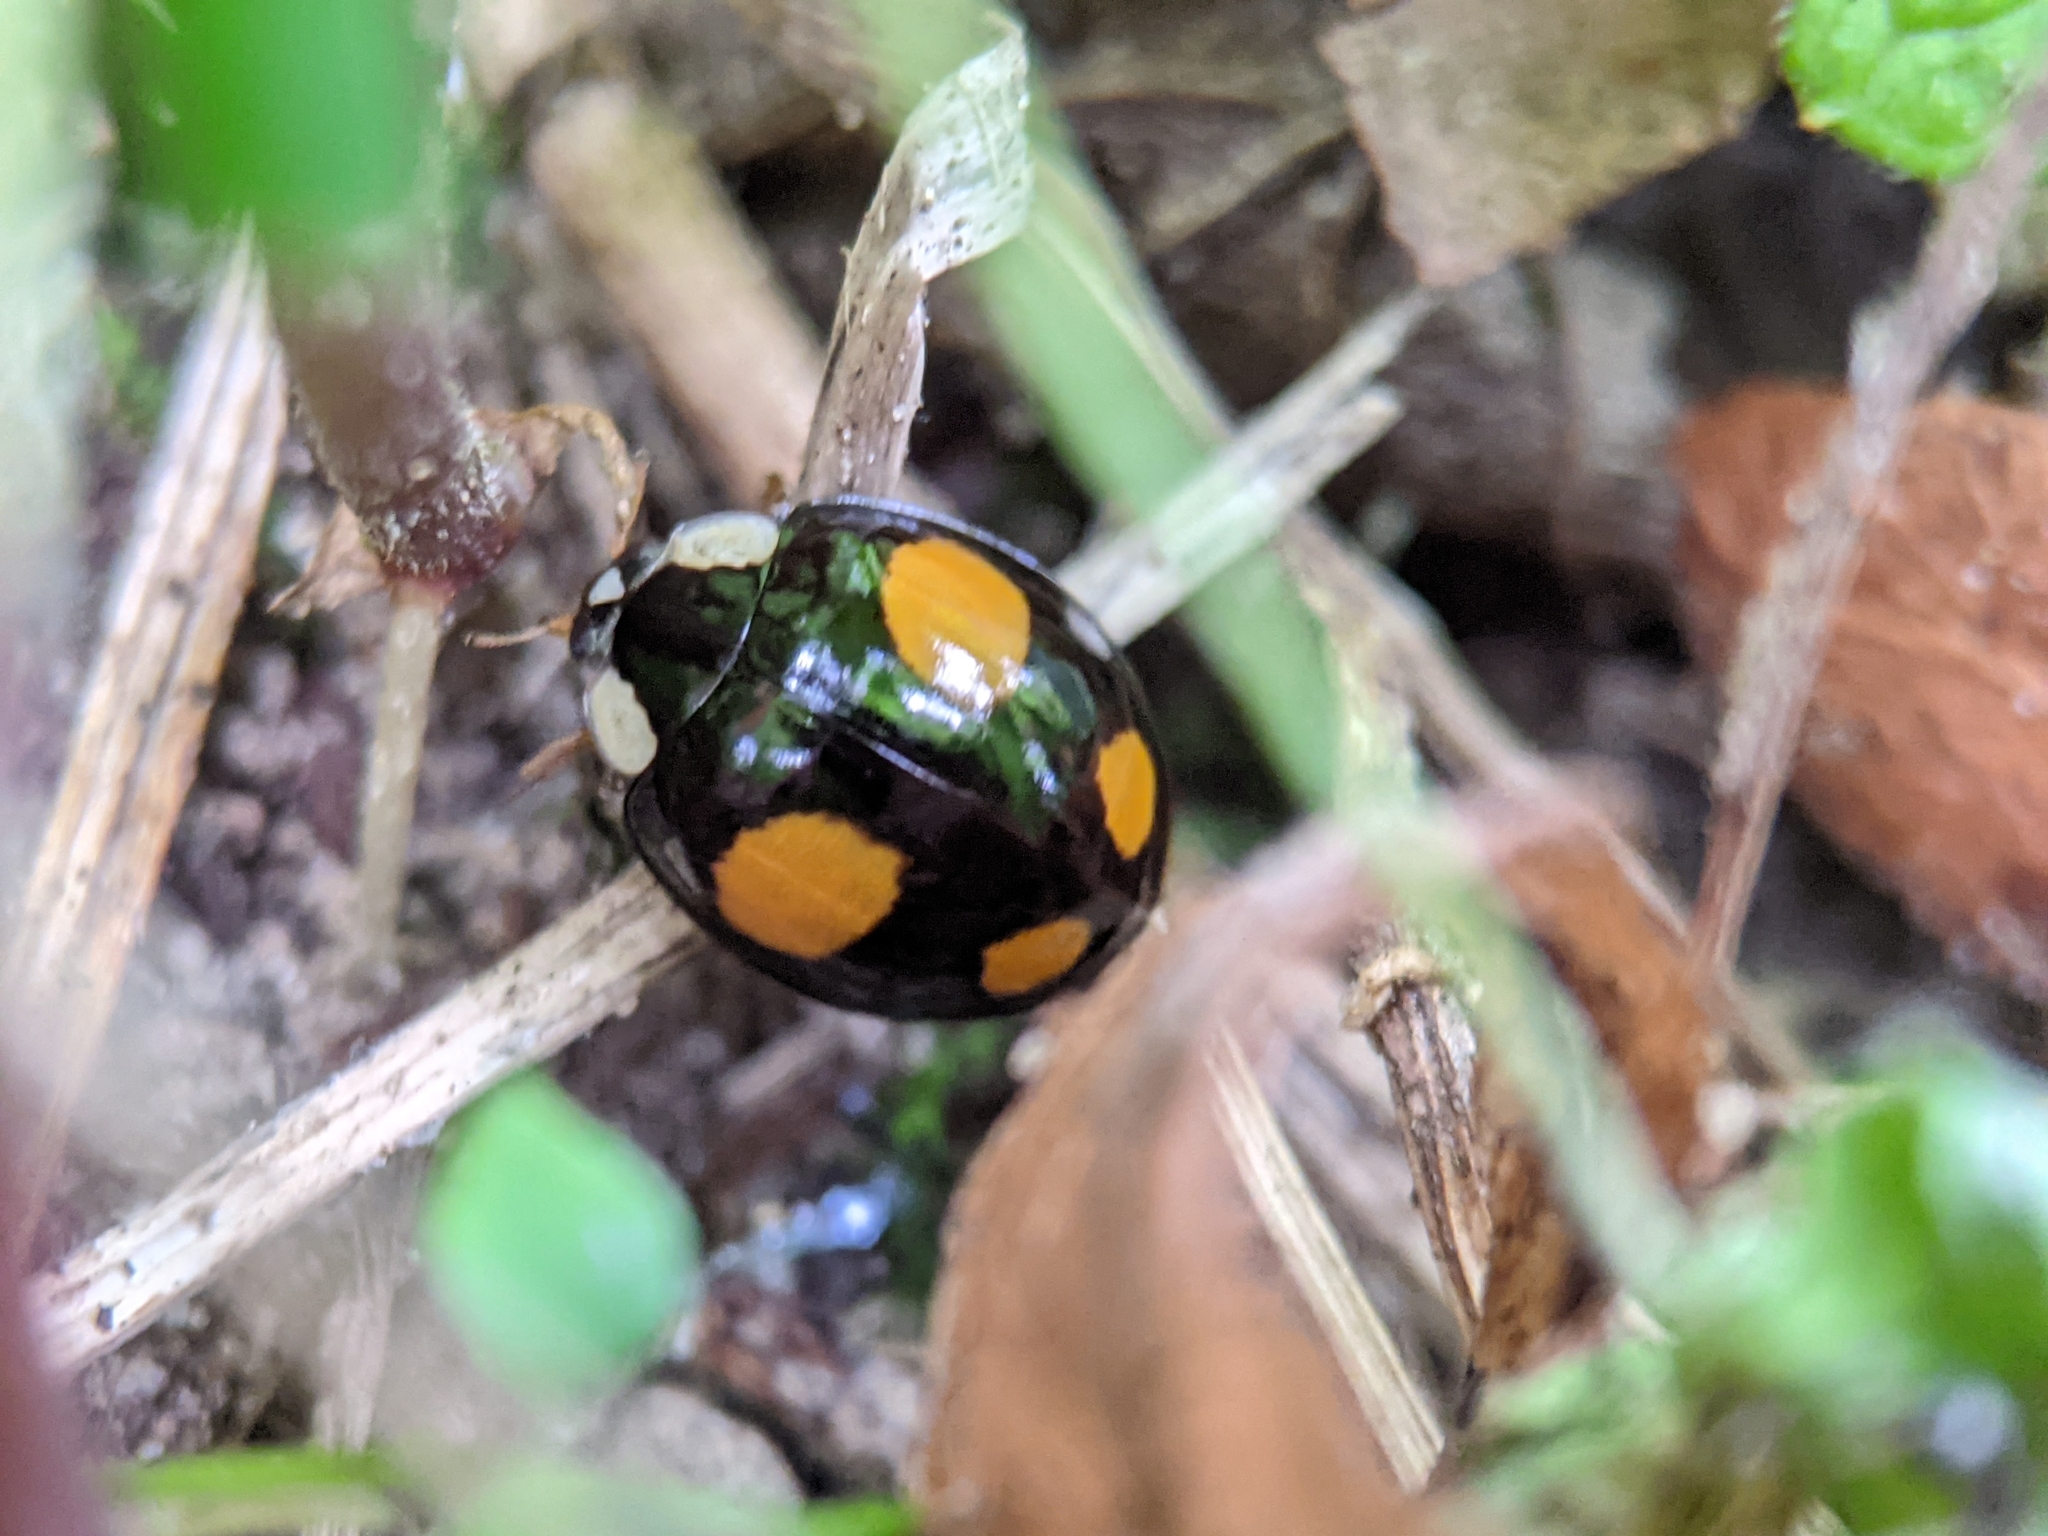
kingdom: Animalia
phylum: Arthropoda
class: Insecta
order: Coleoptera
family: Coccinellidae
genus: Harmonia
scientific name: Harmonia axyridis
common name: Harlequin ladybird
